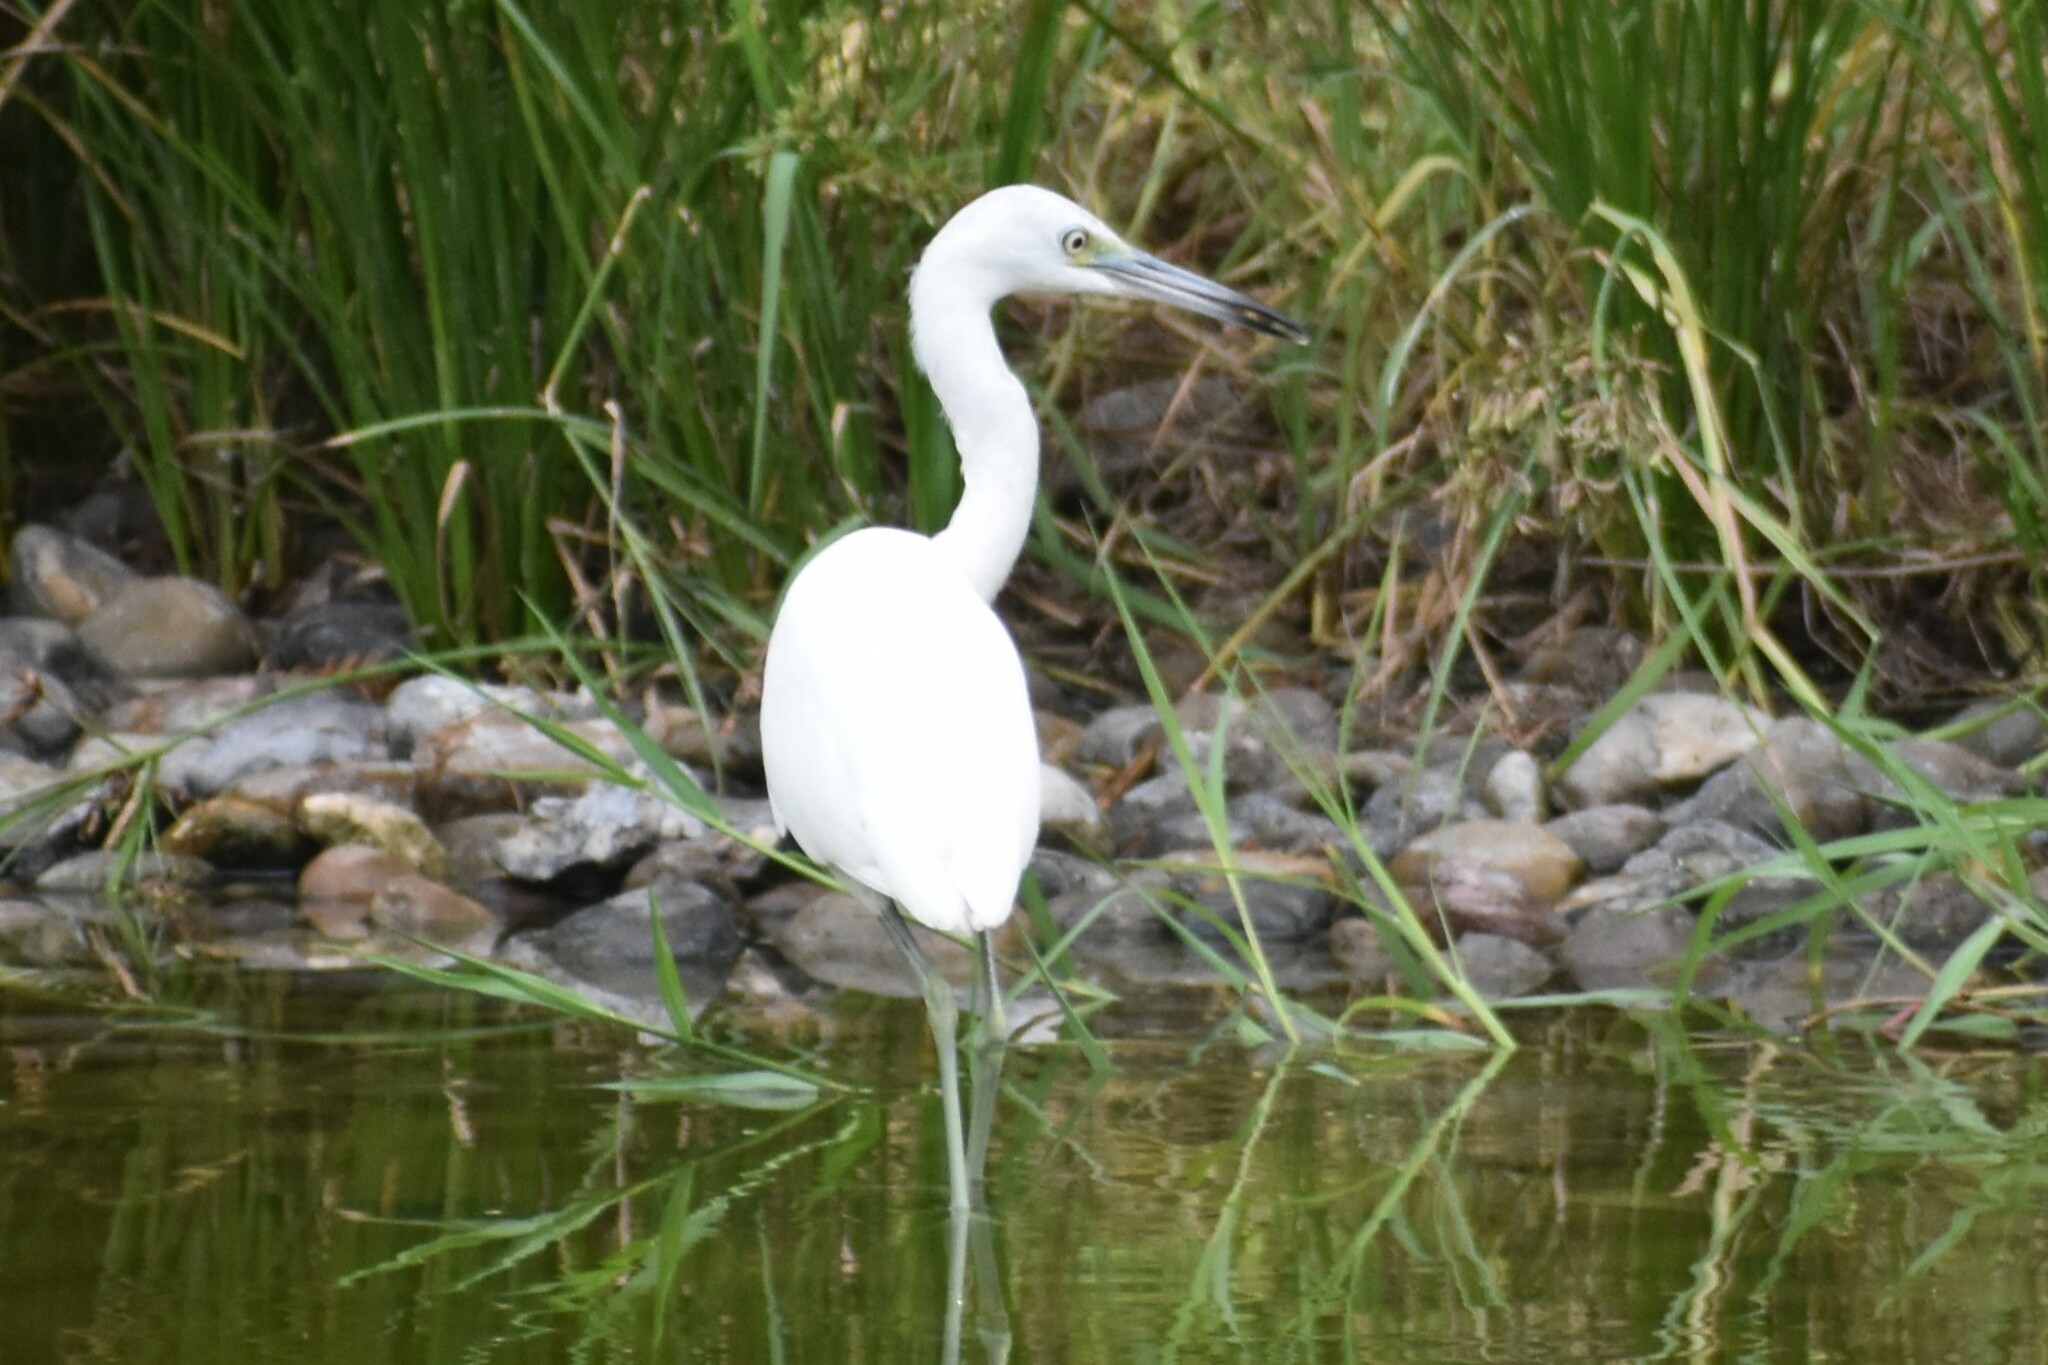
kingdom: Animalia
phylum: Chordata
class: Aves
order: Pelecaniformes
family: Ardeidae
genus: Egretta
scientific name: Egretta caerulea
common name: Little blue heron
